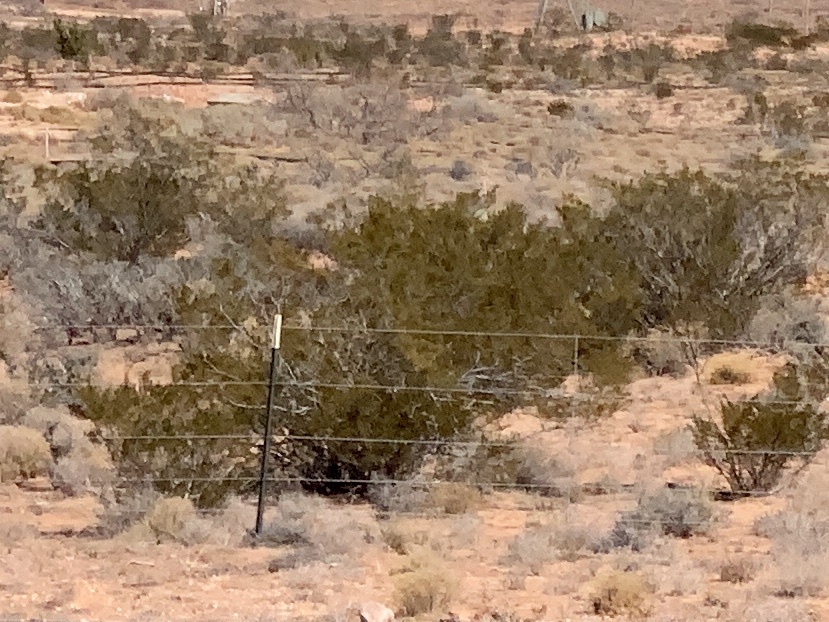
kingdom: Plantae
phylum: Tracheophyta
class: Magnoliopsida
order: Zygophyllales
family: Zygophyllaceae
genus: Larrea
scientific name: Larrea tridentata
